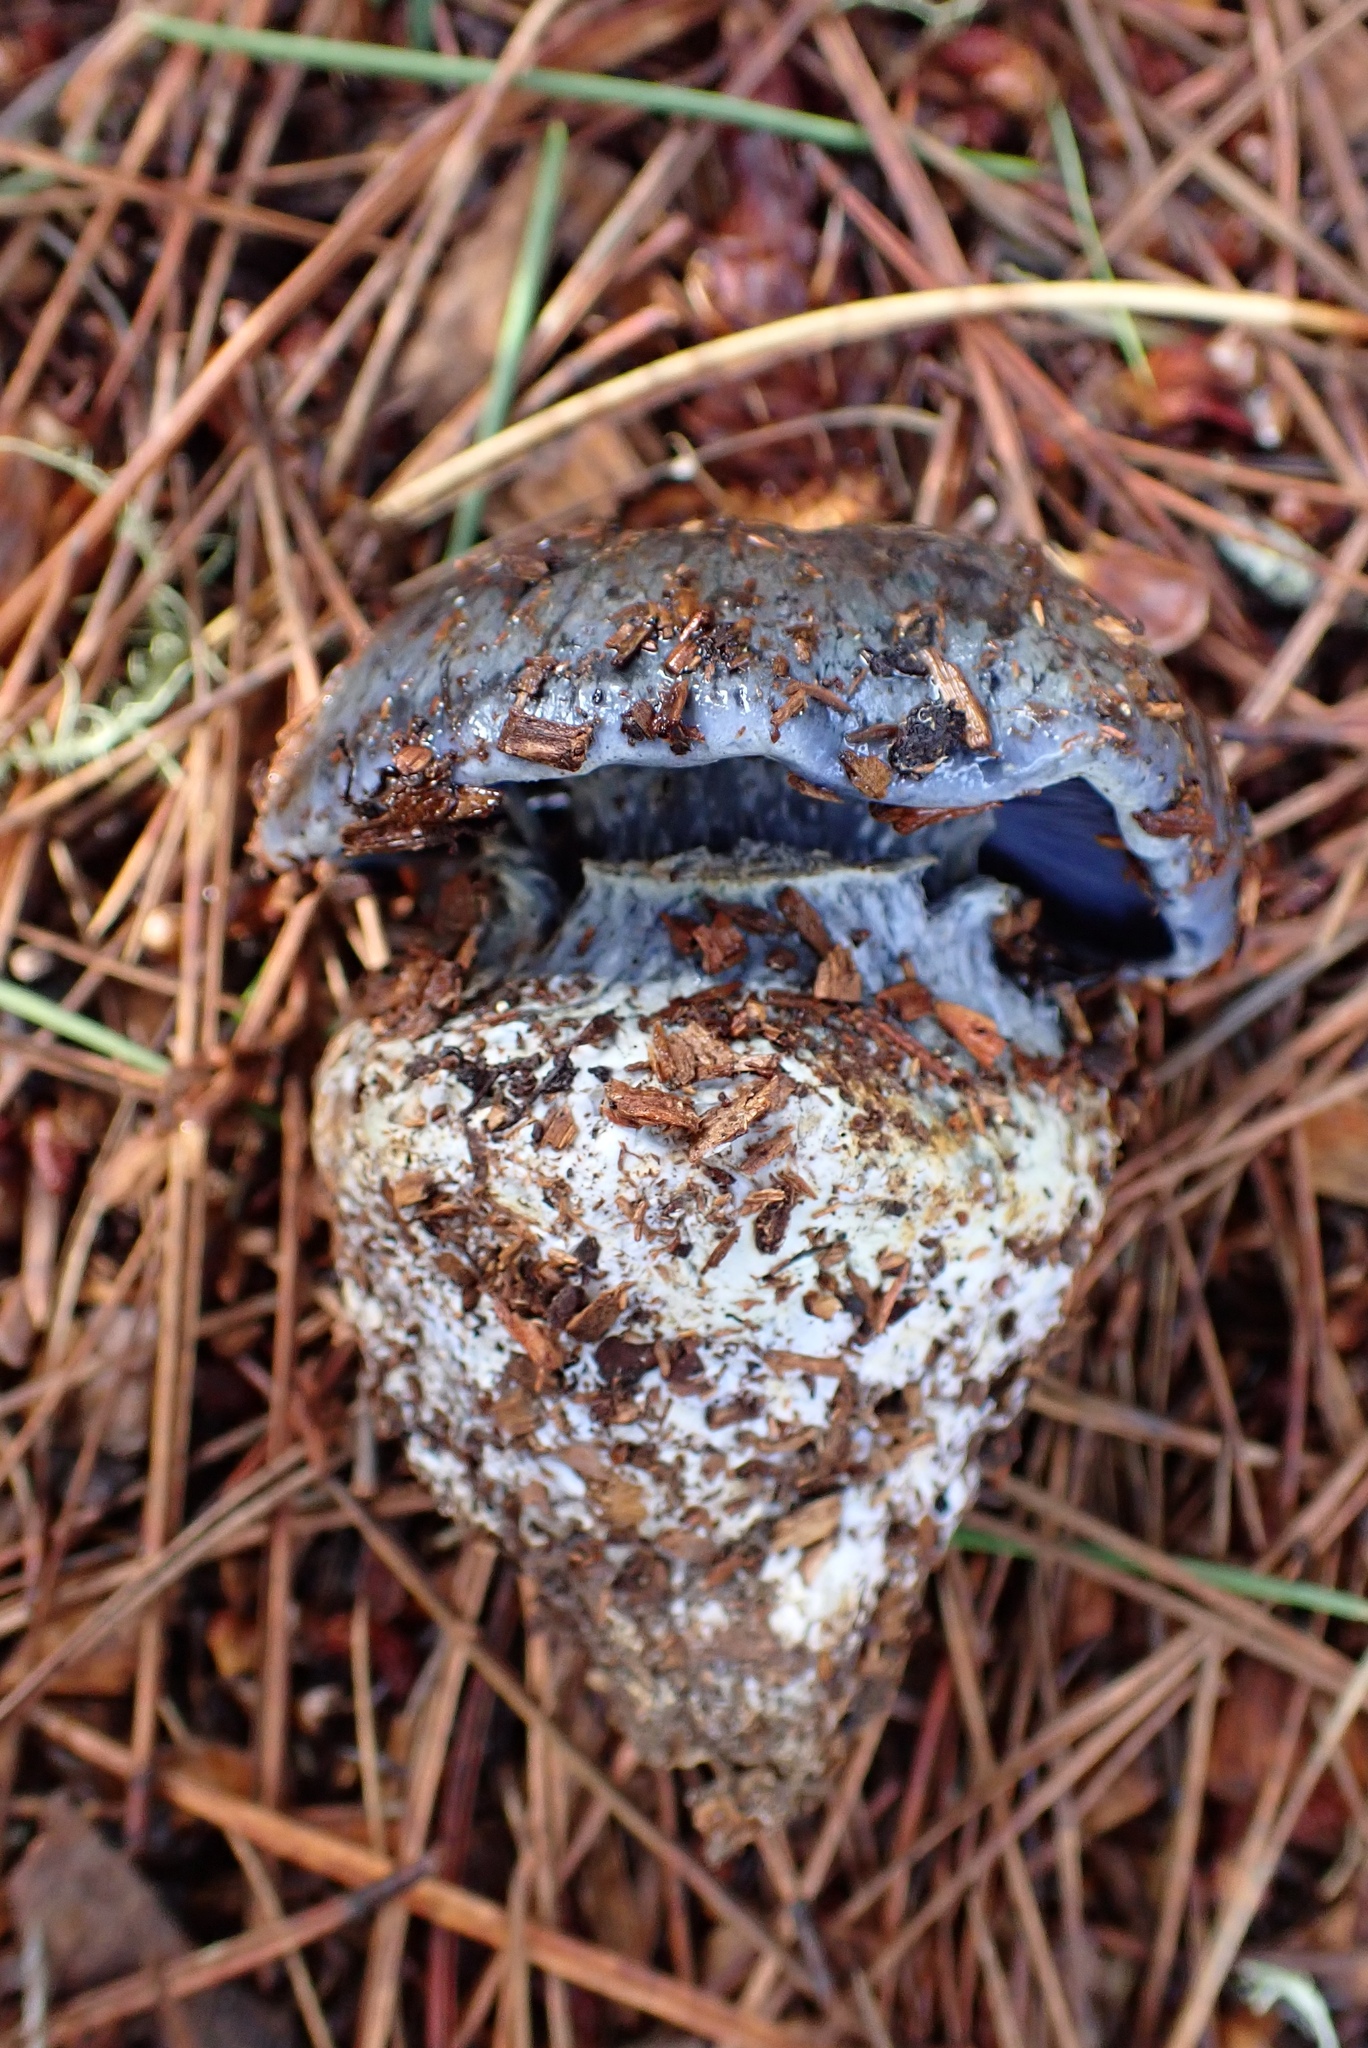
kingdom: Fungi
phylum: Basidiomycota
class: Agaricomycetes
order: Agaricales
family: Cortinariaceae
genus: Phlegmacium
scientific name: Phlegmacium glaucocephalus
